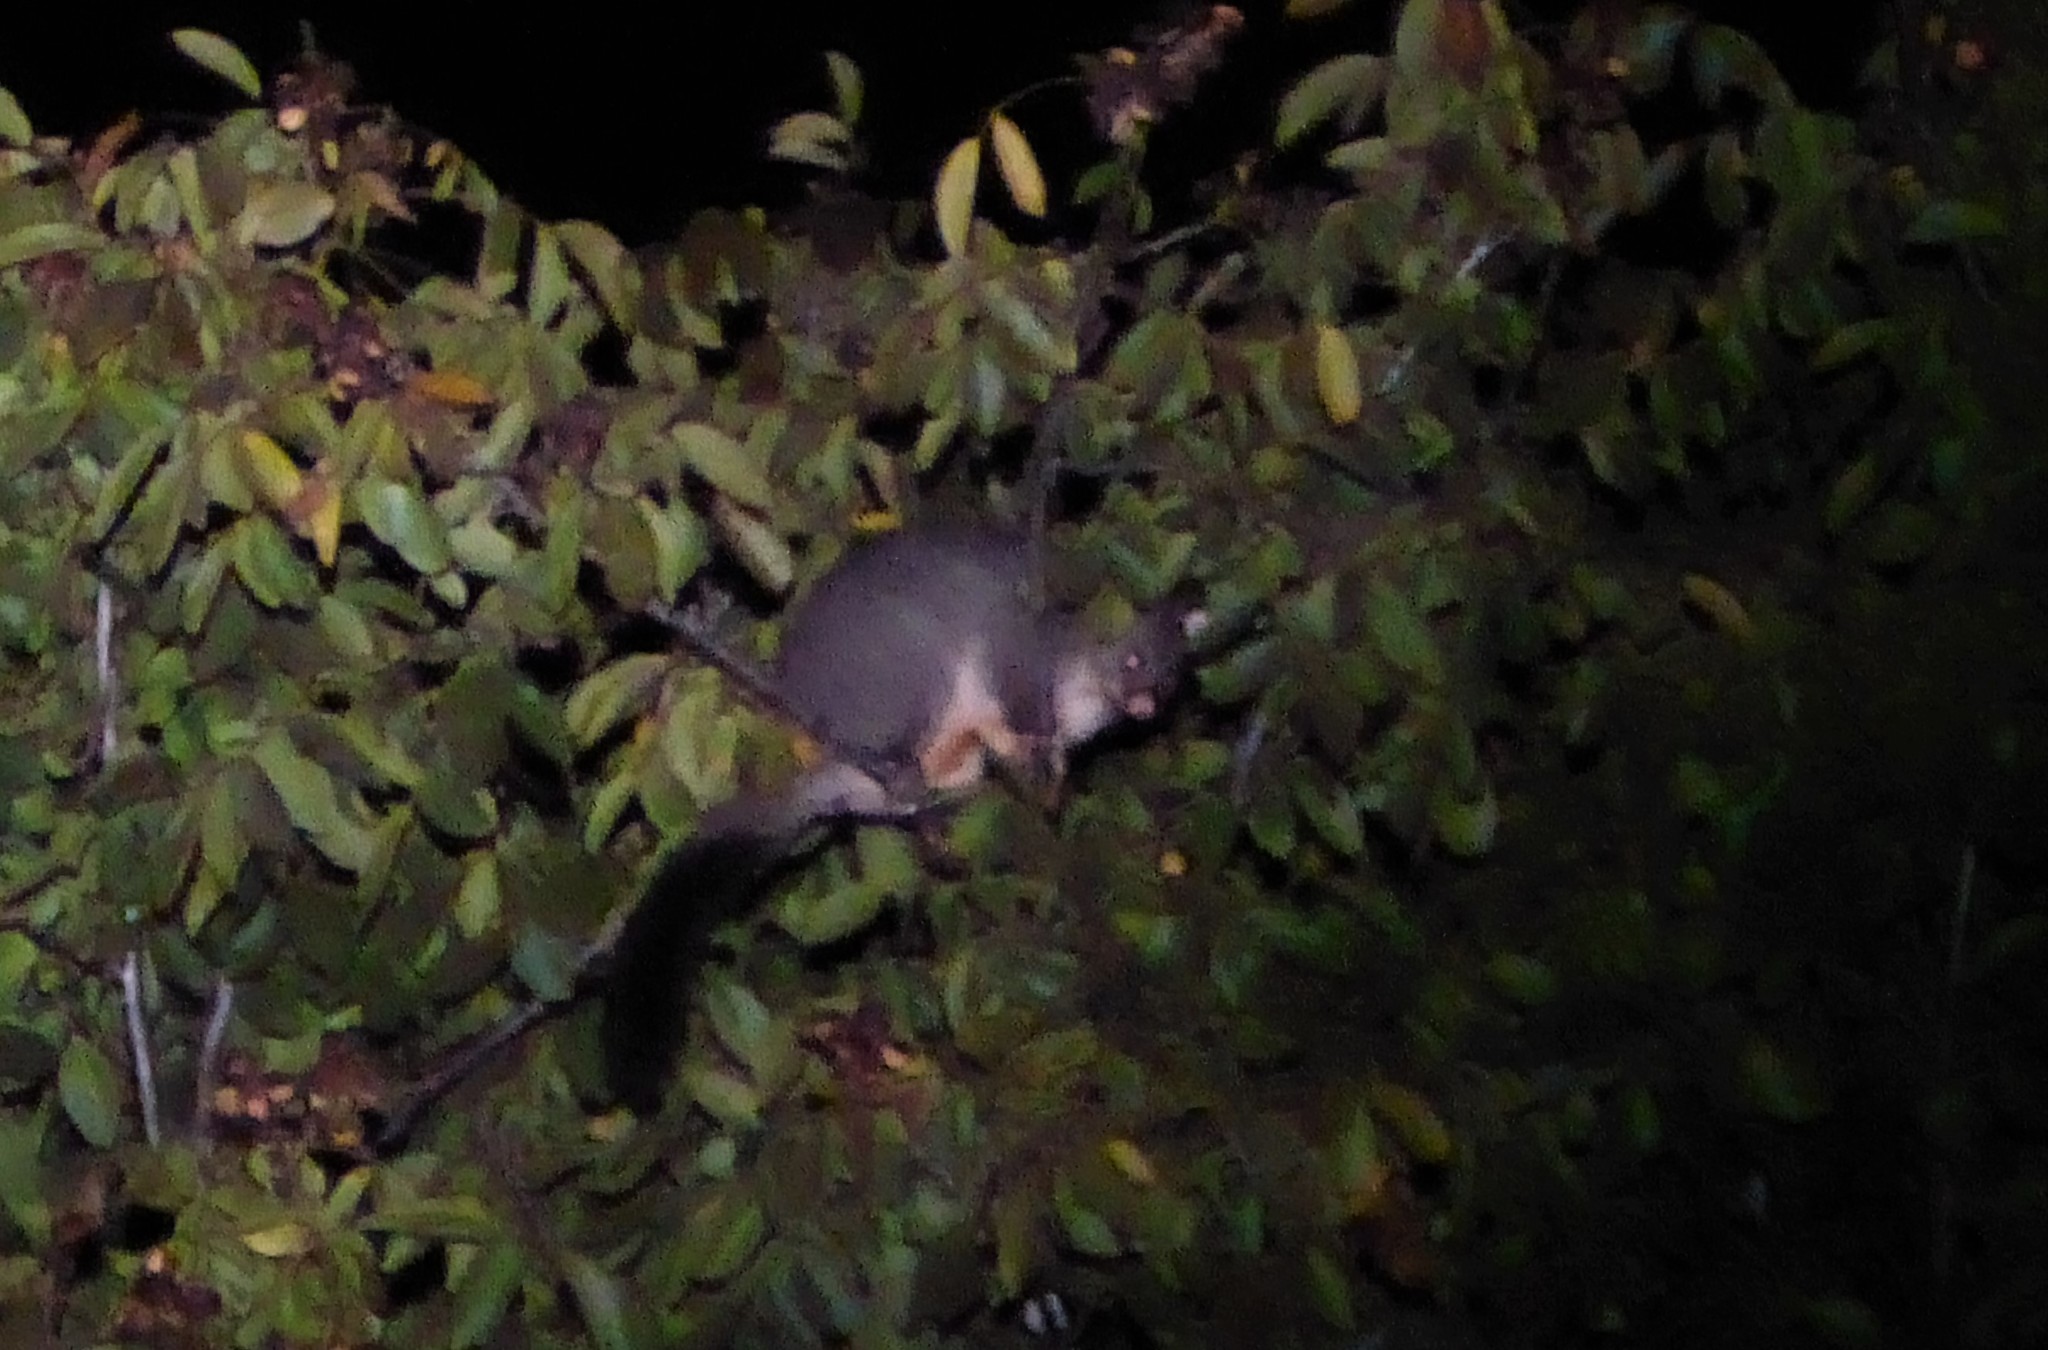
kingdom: Animalia
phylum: Chordata
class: Mammalia
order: Diprotodontia
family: Phalangeridae
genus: Trichosurus
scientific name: Trichosurus vulpecula
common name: Common brushtail
